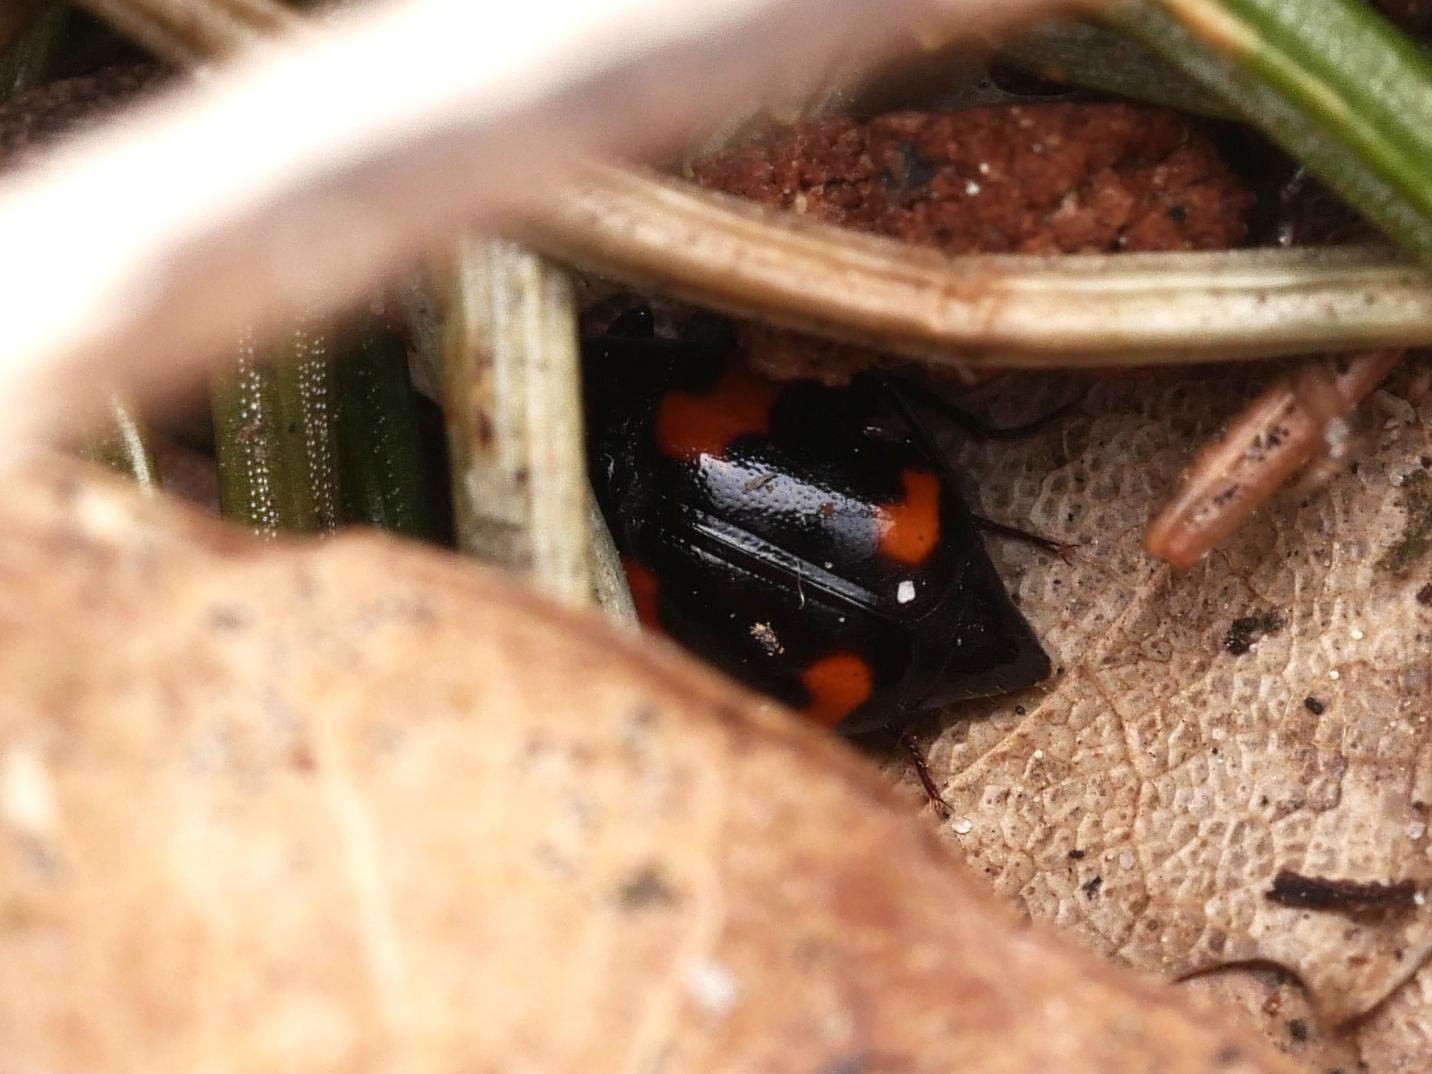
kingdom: Animalia
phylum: Arthropoda
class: Insecta
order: Coleoptera
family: Staphylinidae
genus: Scaphidium
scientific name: Scaphidium quadrimaculatum
